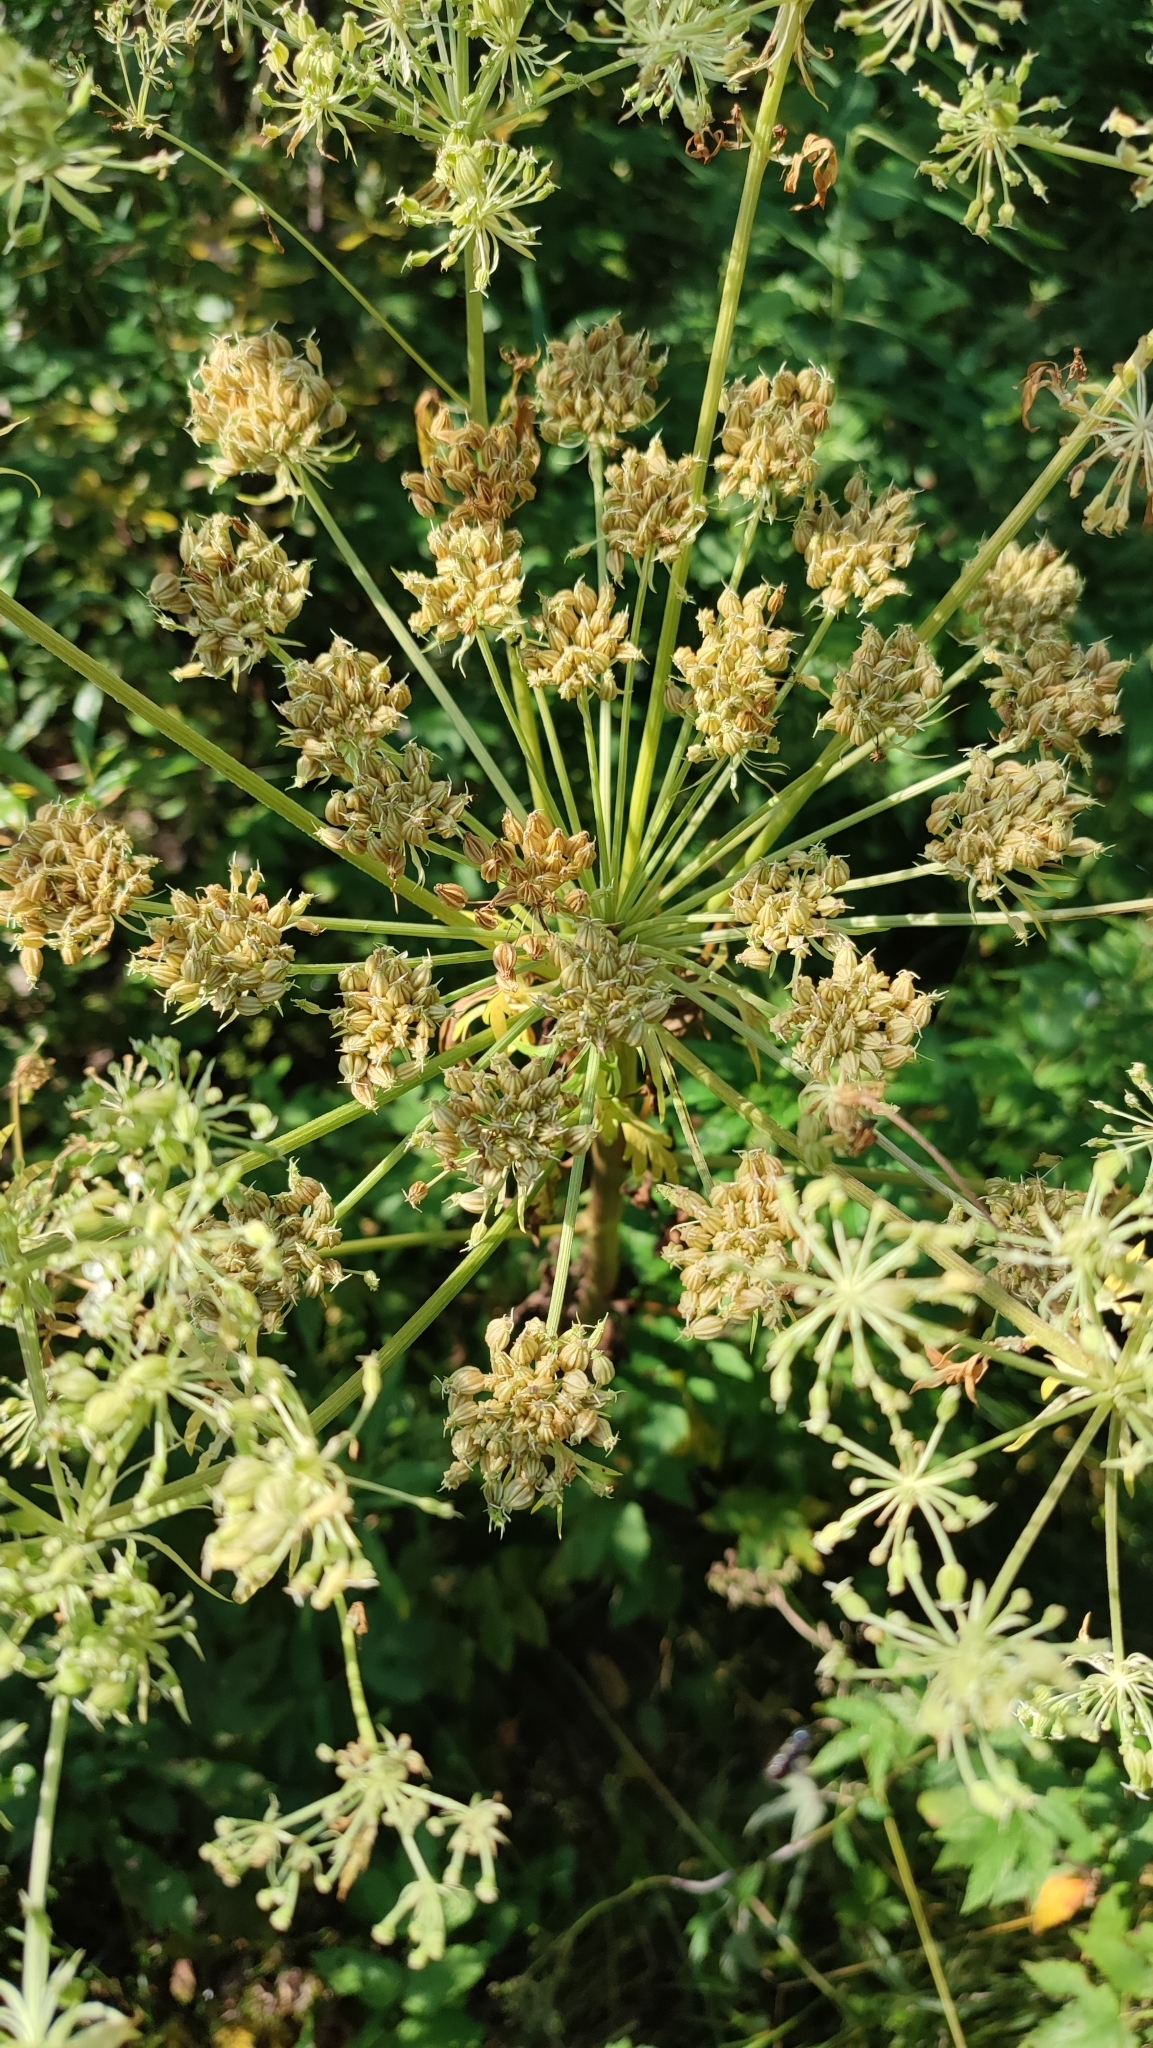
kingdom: Plantae
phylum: Tracheophyta
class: Magnoliopsida
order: Apiales
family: Apiaceae
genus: Pleurospermum
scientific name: Pleurospermum uralense
